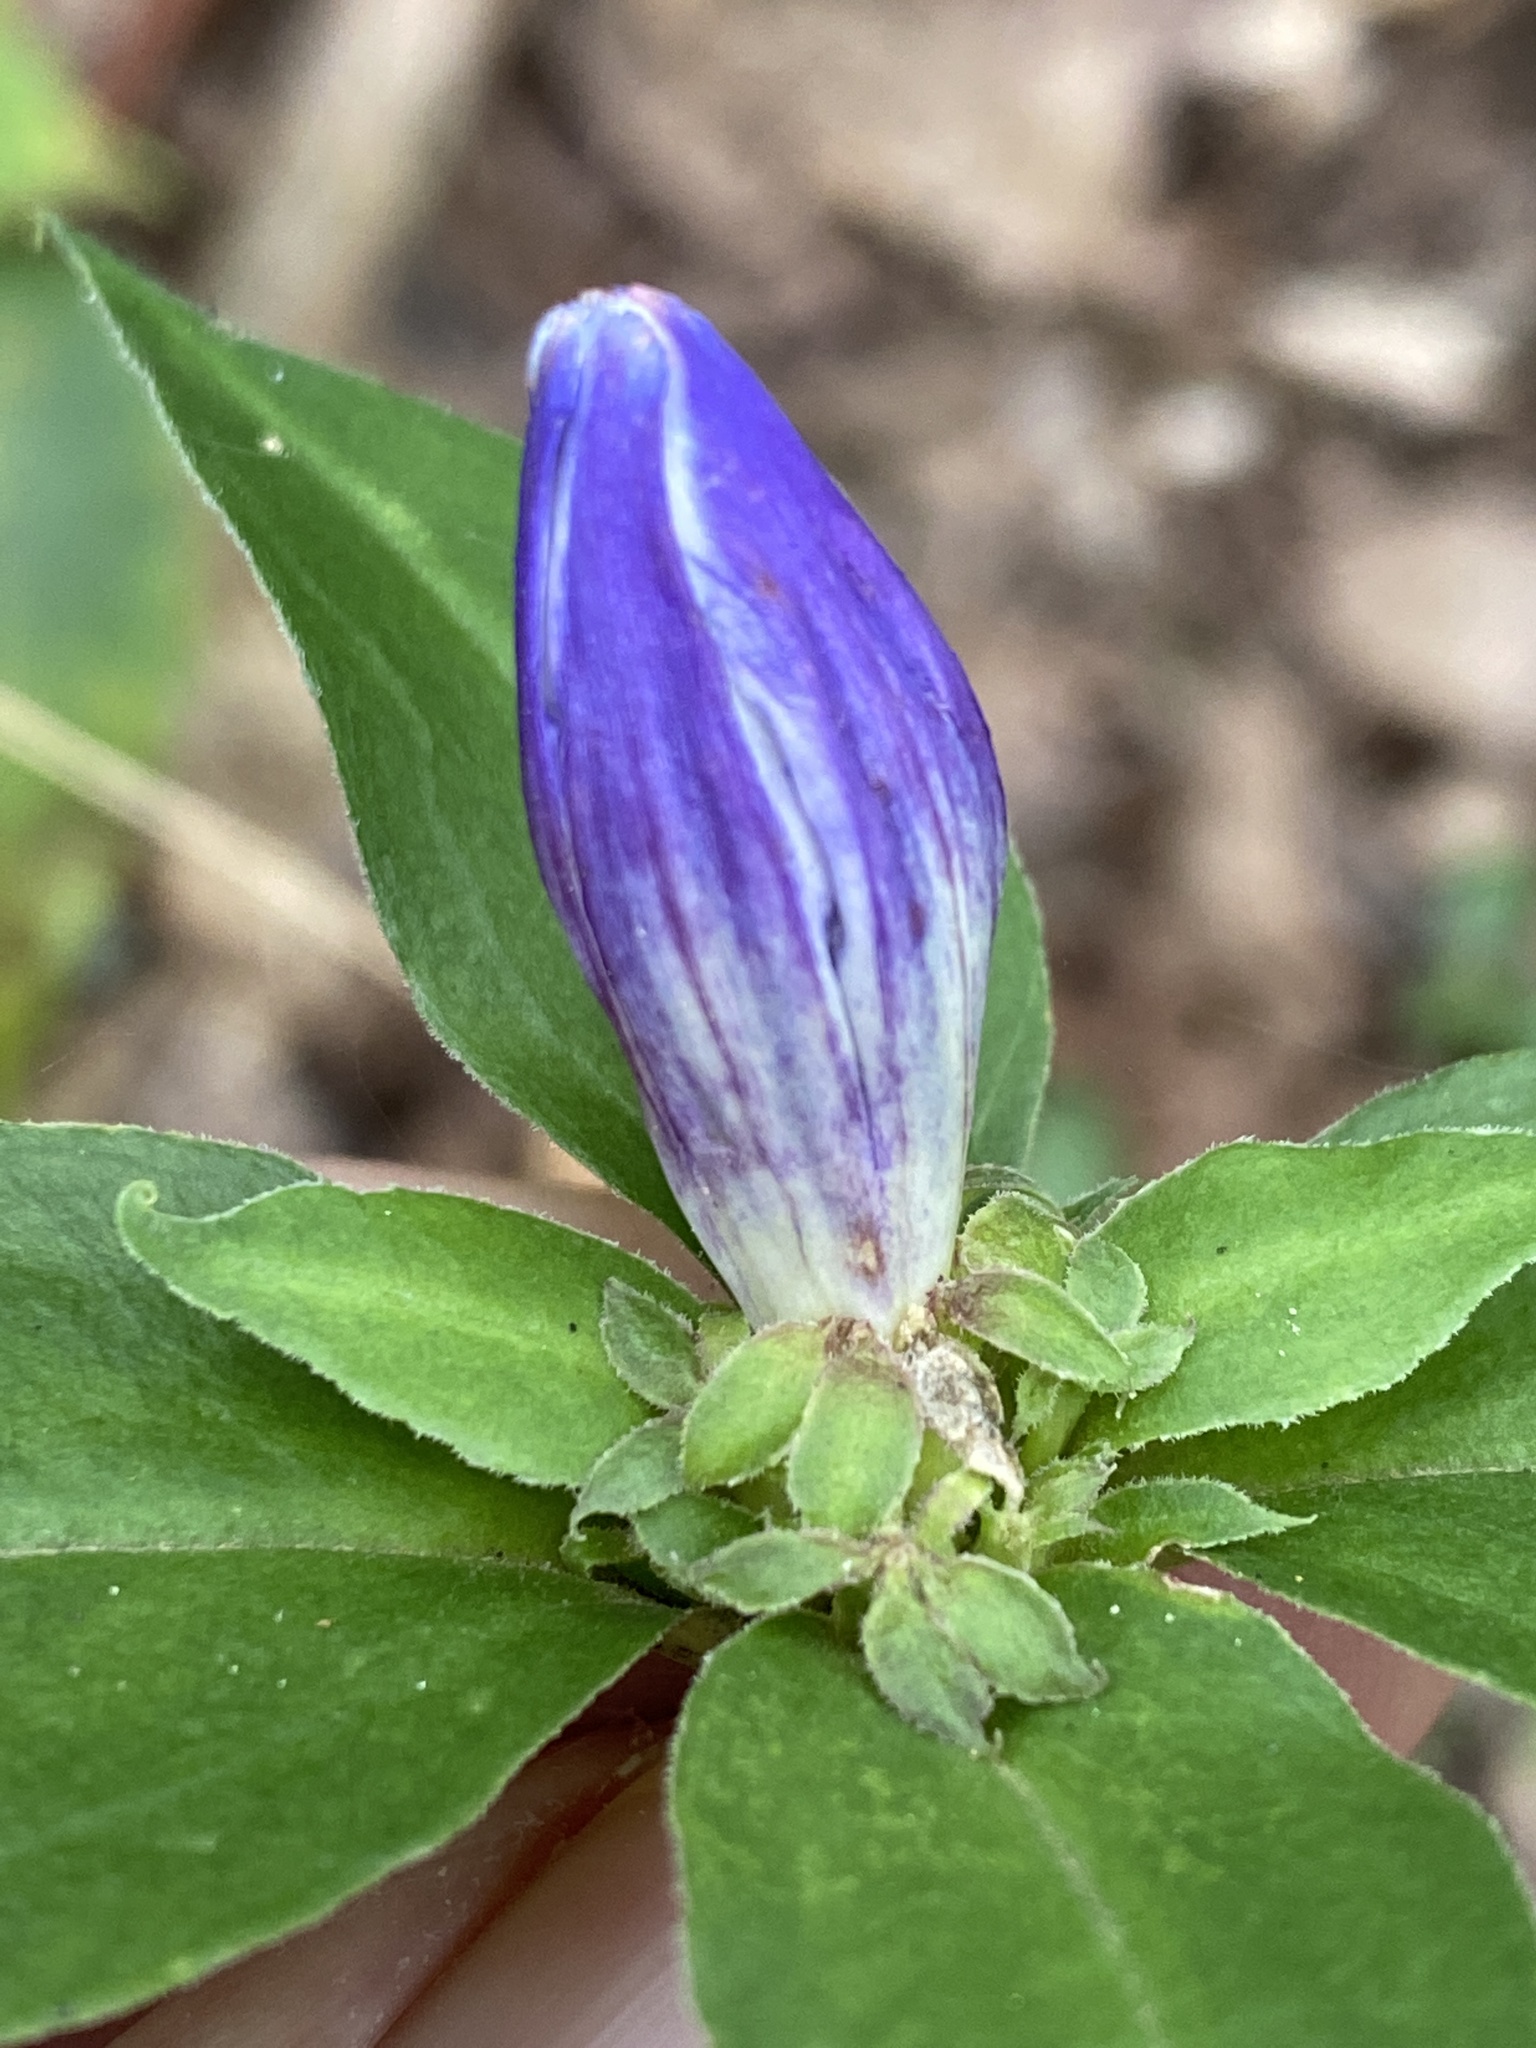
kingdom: Plantae
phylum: Tracheophyta
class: Magnoliopsida
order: Gentianales
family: Gentianaceae
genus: Gentiana
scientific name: Gentiana austromontana
